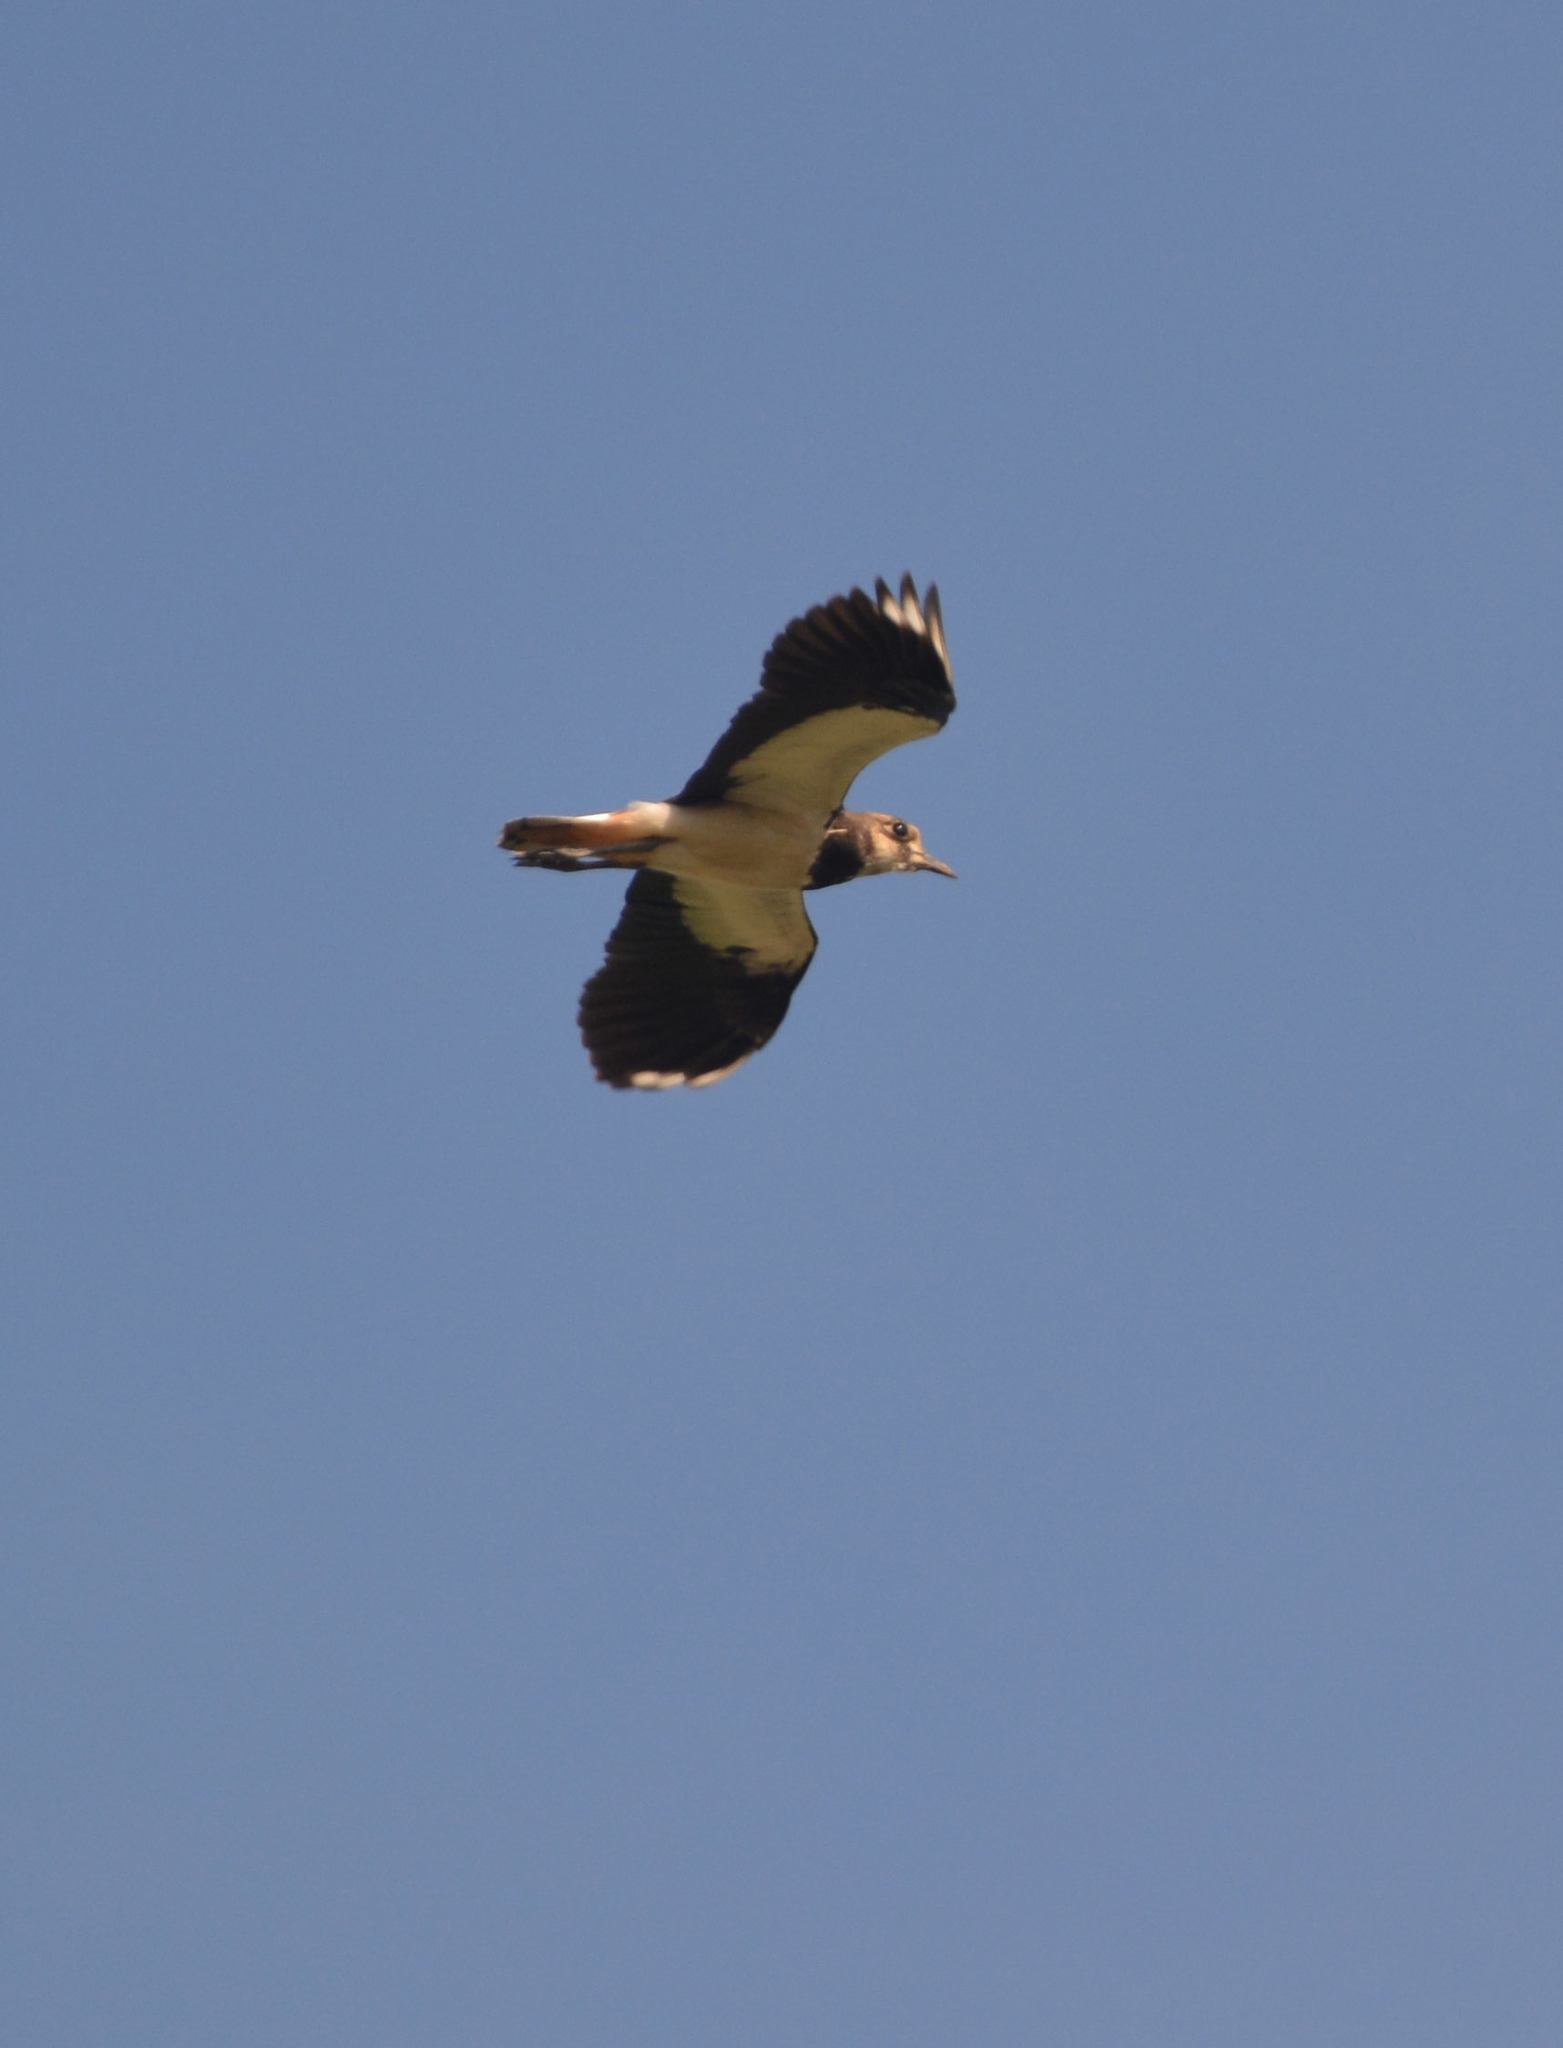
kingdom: Animalia
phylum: Chordata
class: Aves
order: Charadriiformes
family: Charadriidae
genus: Vanellus
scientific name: Vanellus vanellus
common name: Northern lapwing
